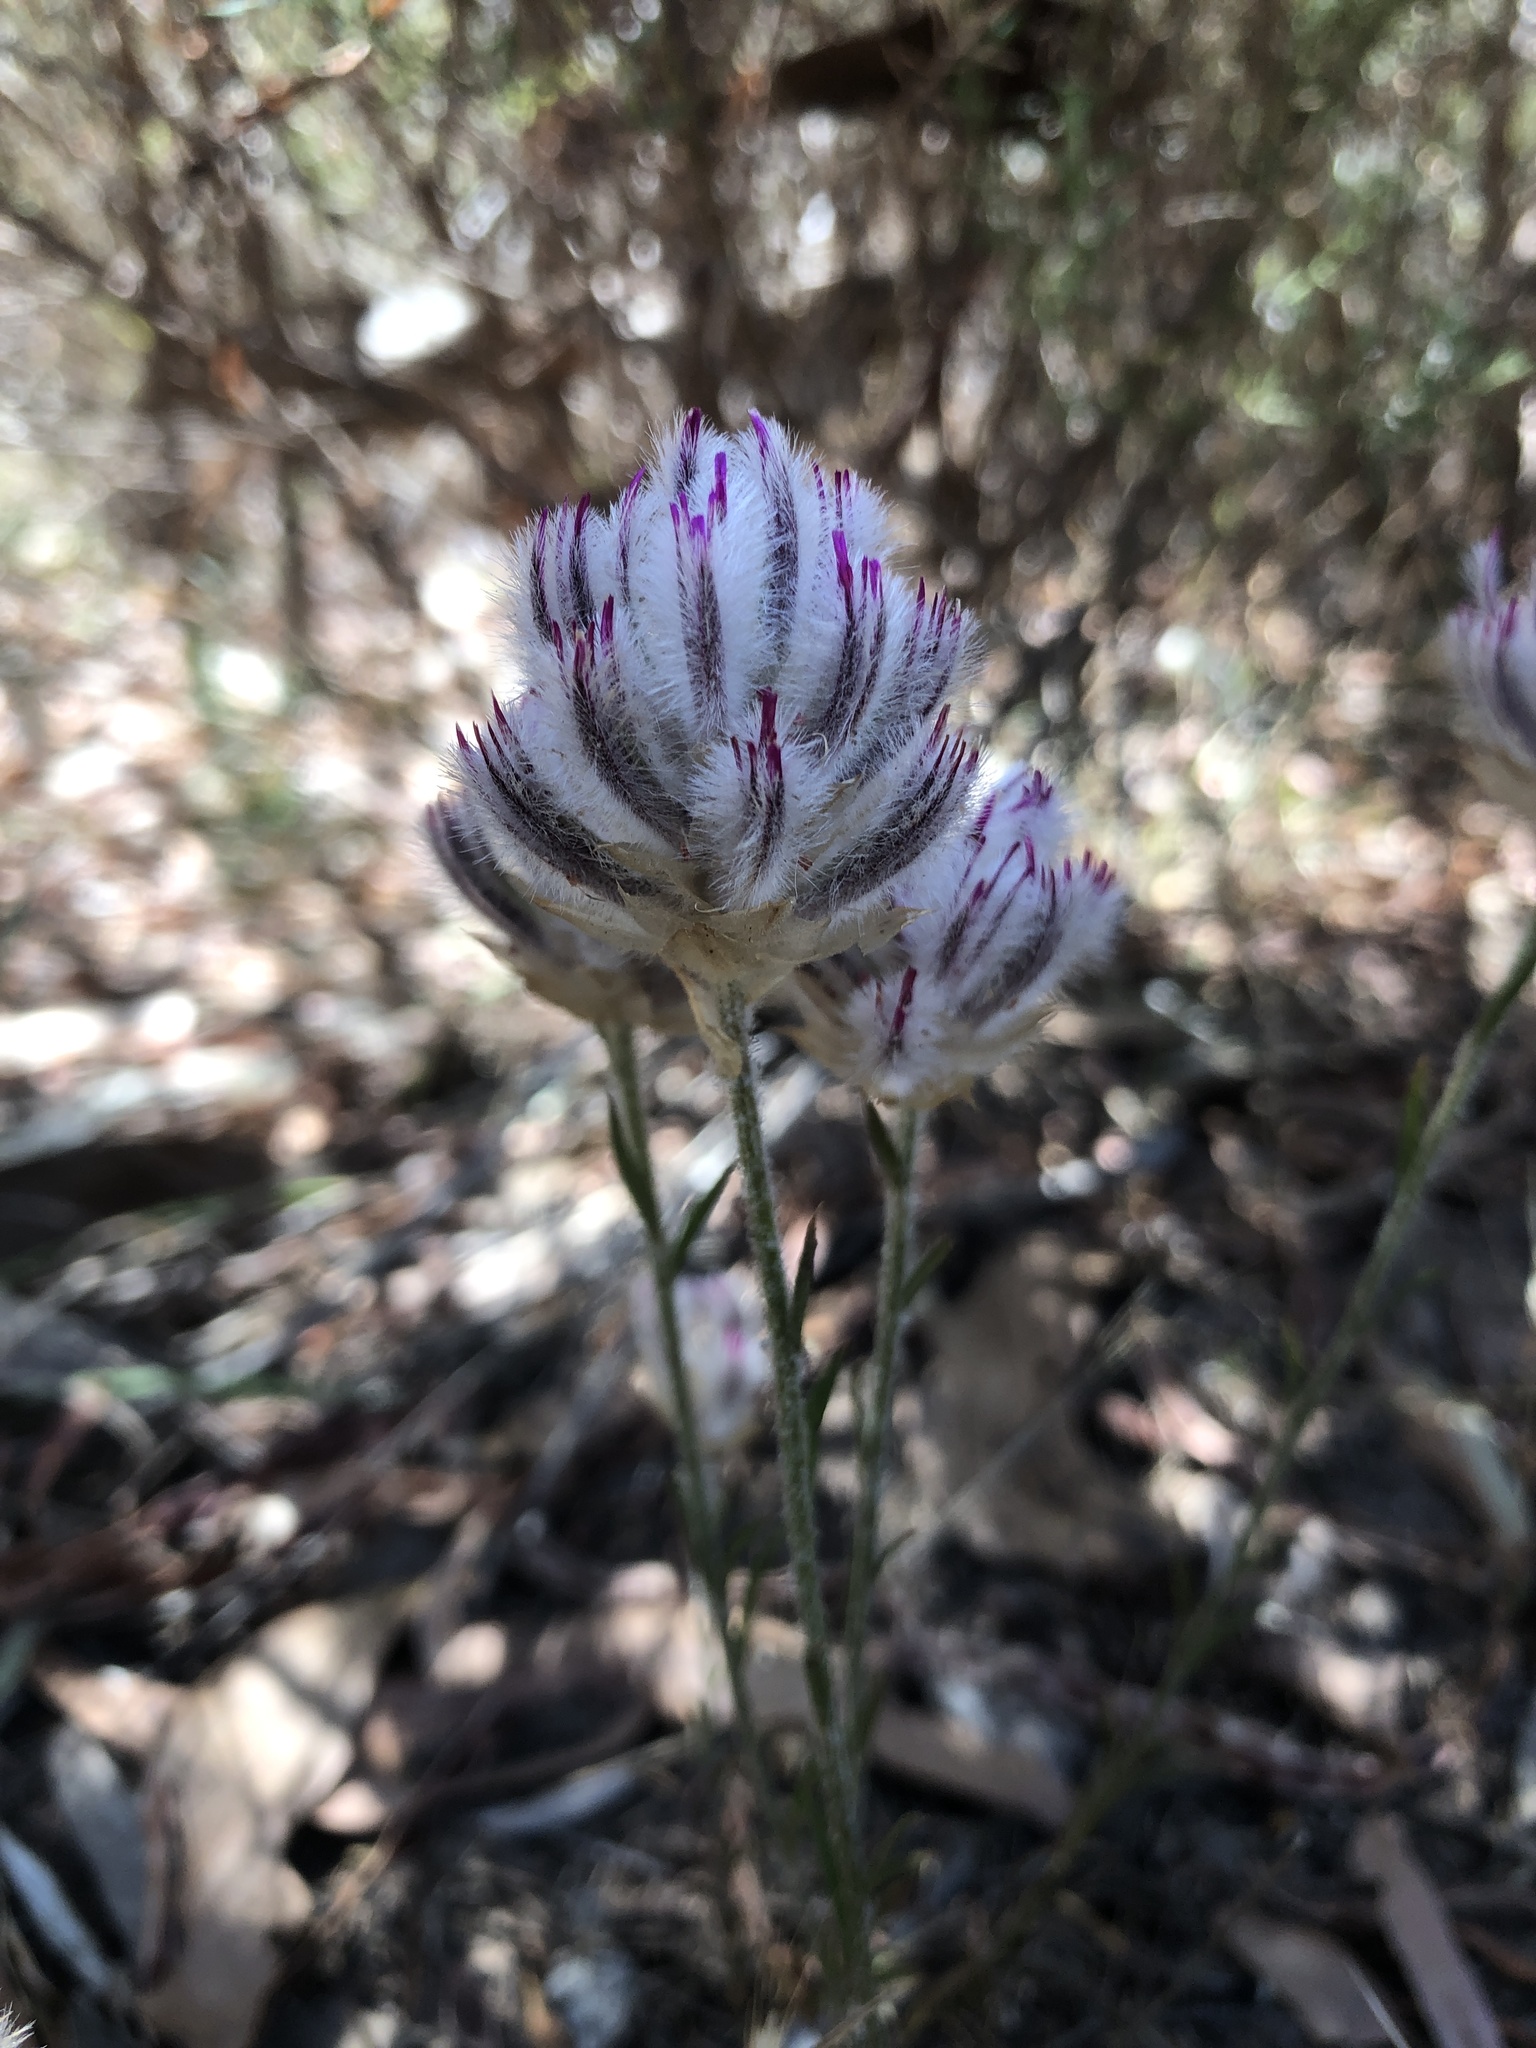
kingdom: Plantae
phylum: Tracheophyta
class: Magnoliopsida
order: Caryophyllales
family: Amaranthaceae
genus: Ptilotus
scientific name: Ptilotus erubescens
